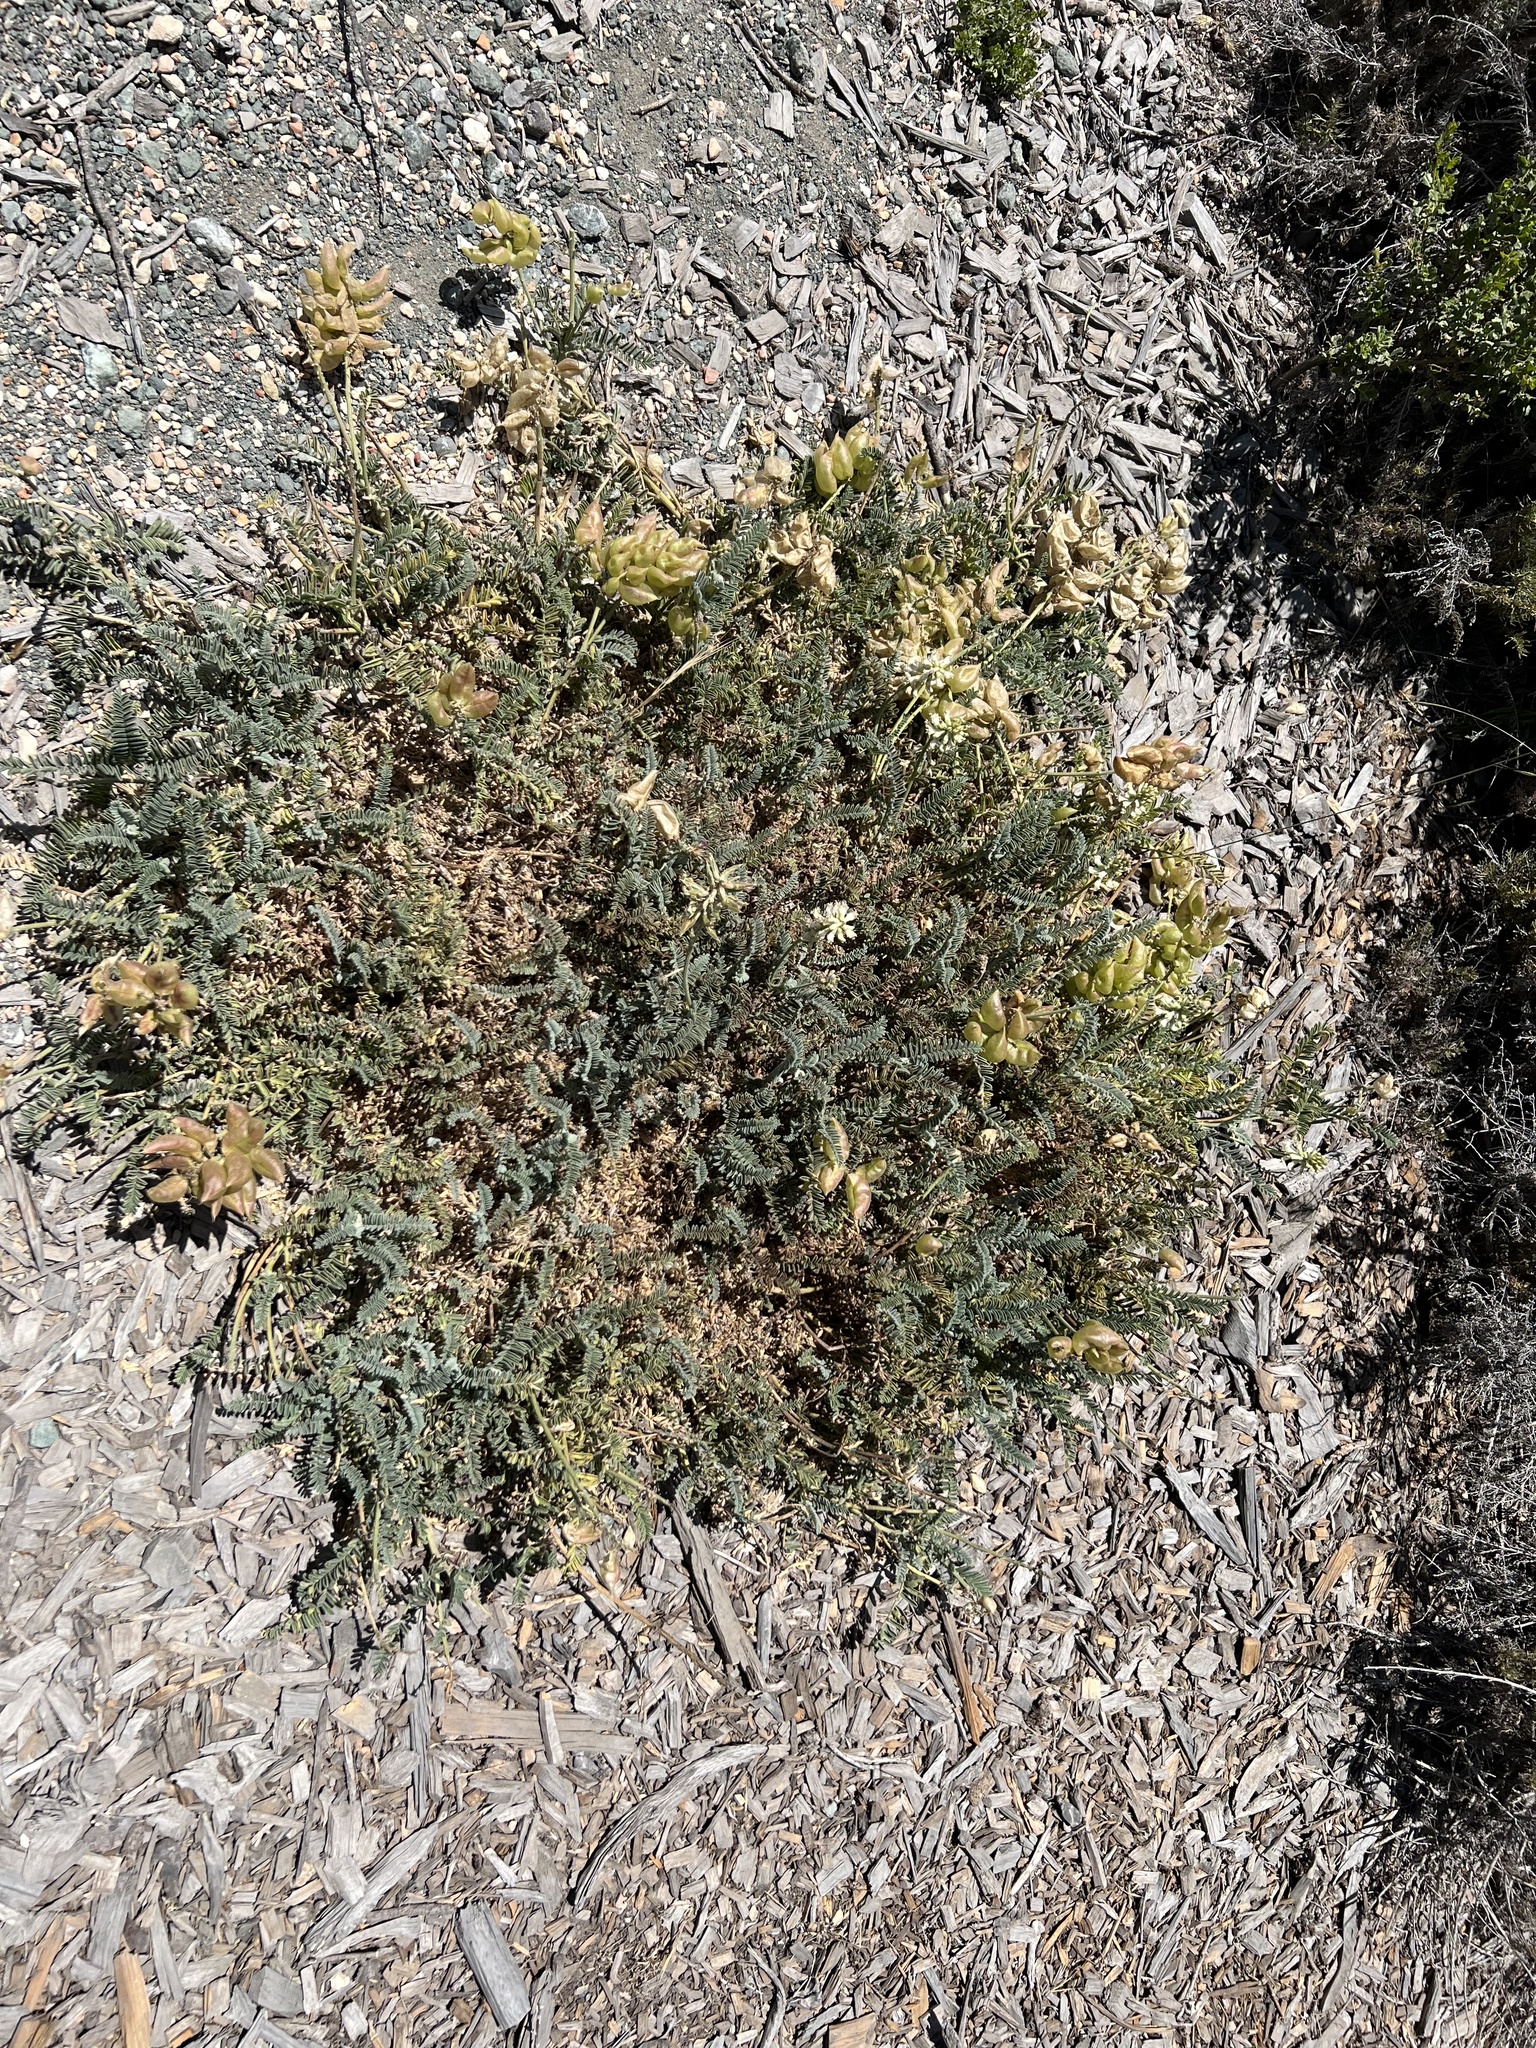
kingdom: Plantae
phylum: Tracheophyta
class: Magnoliopsida
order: Fabales
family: Fabaceae
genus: Astragalus
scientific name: Astragalus nuttallii
